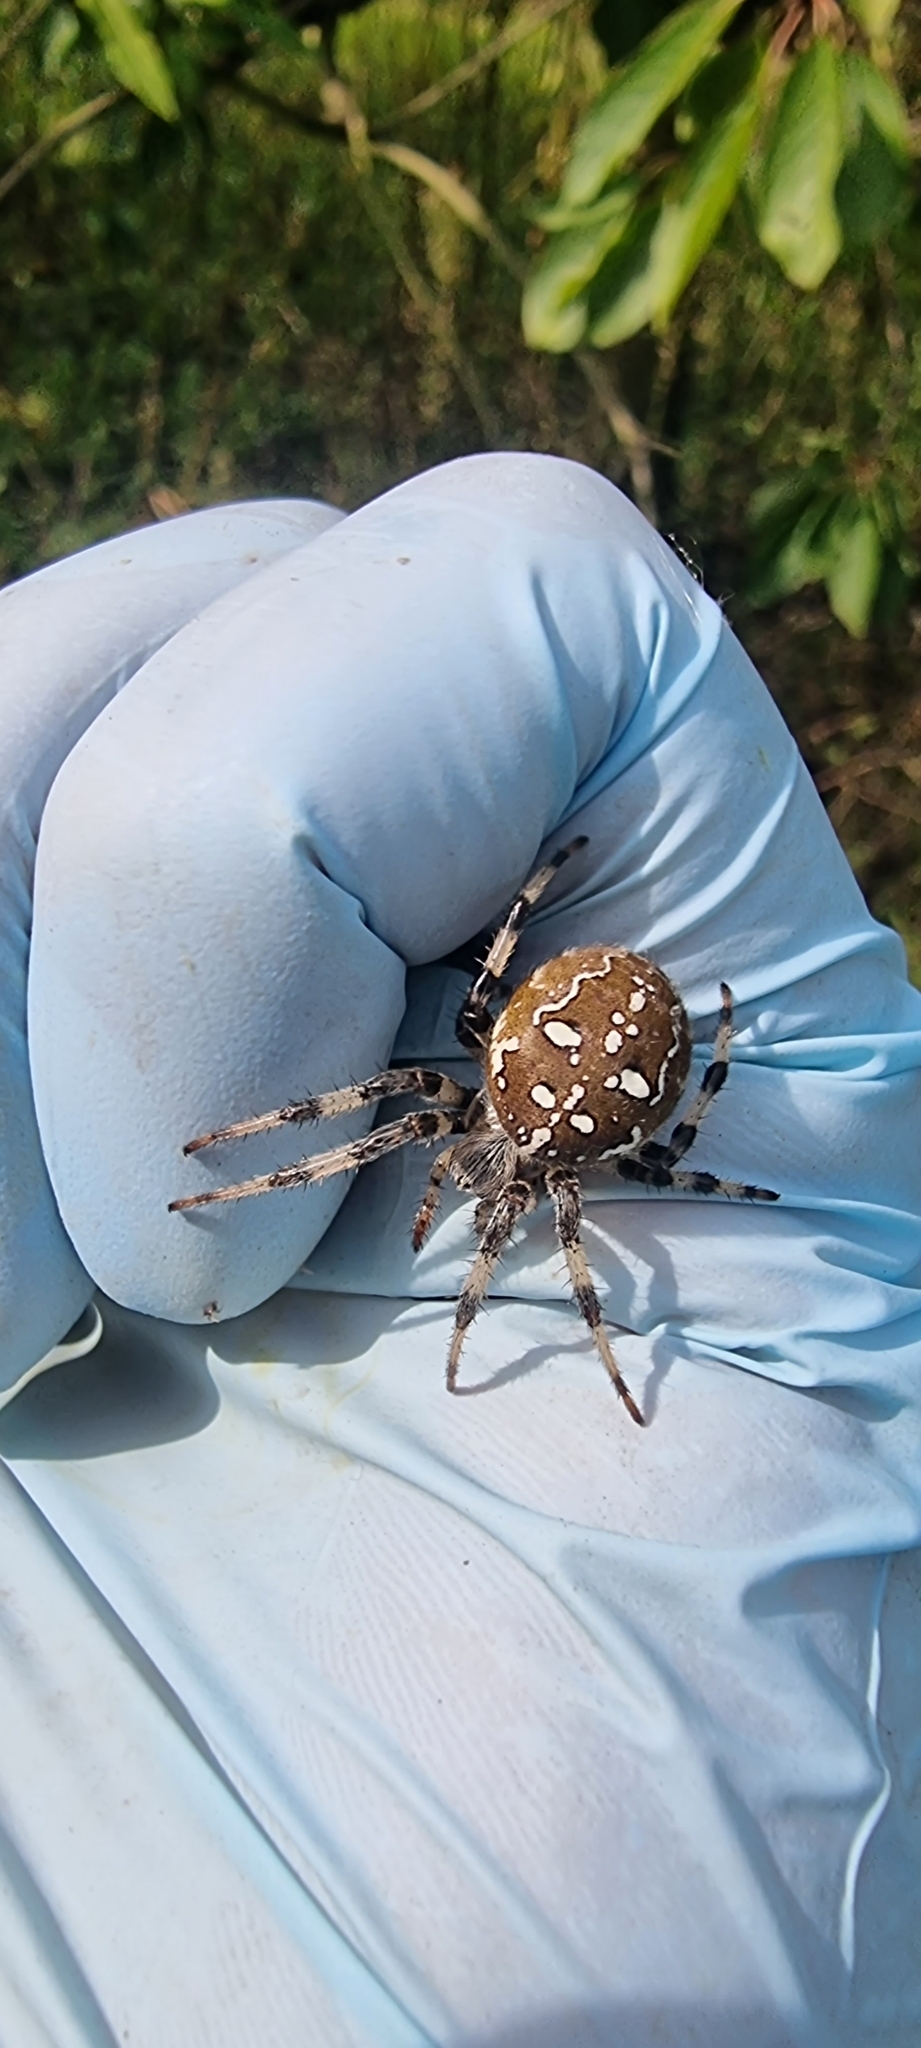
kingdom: Animalia
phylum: Arthropoda
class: Arachnida
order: Araneae
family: Araneidae
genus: Araneus
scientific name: Araneus quadratus
